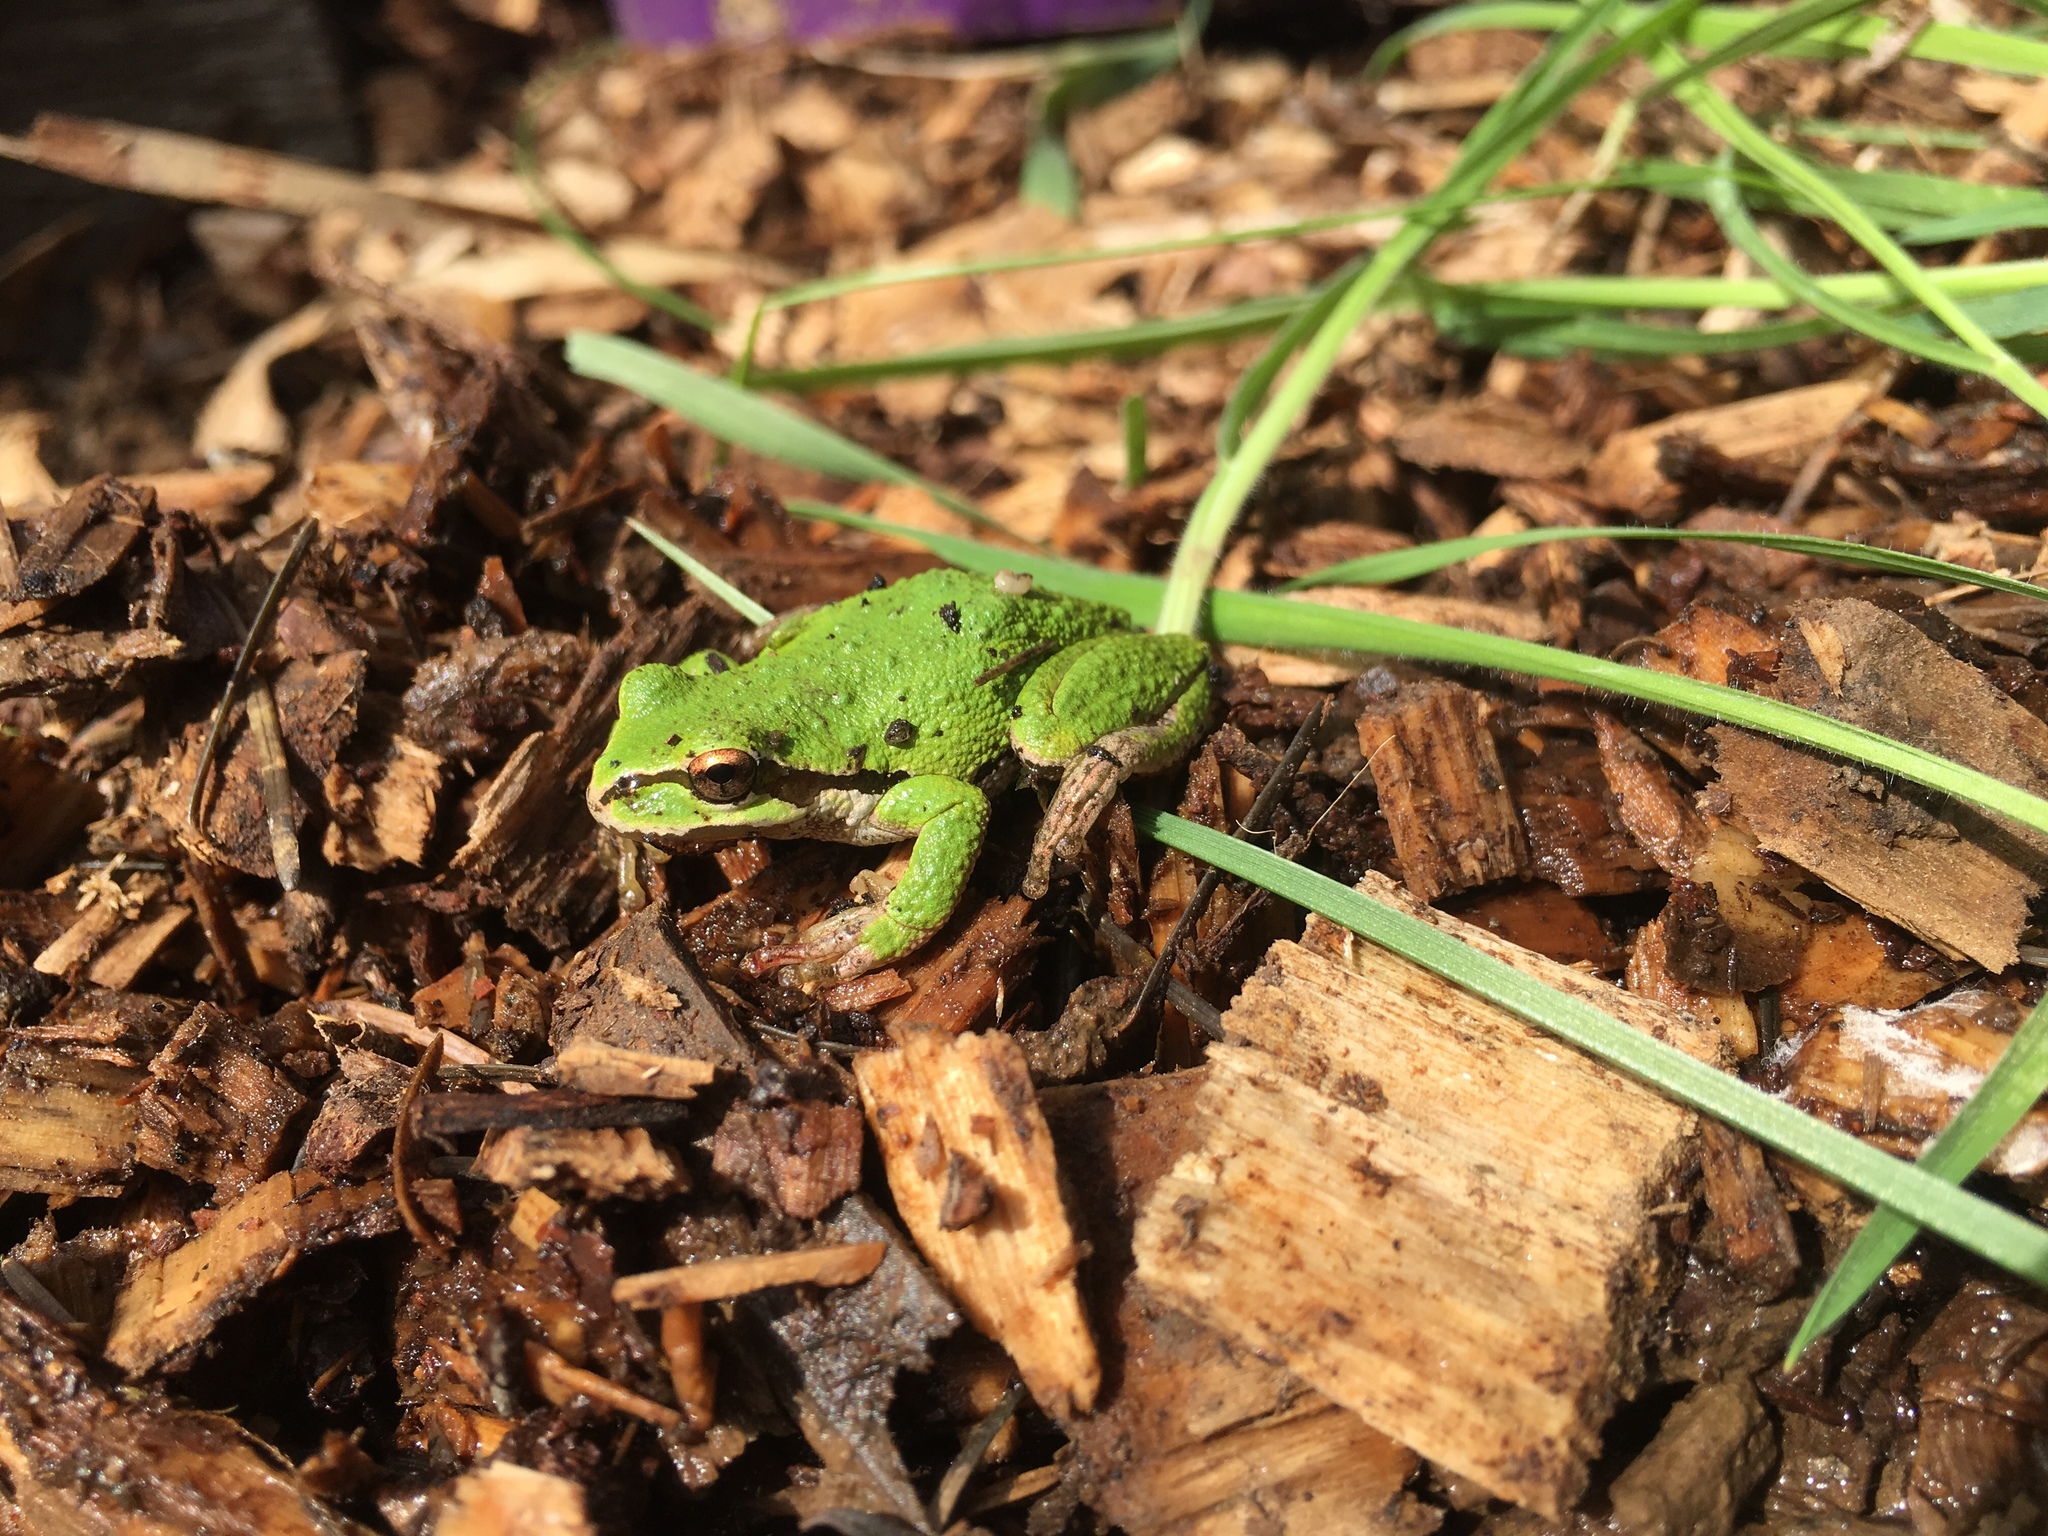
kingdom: Animalia
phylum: Chordata
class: Amphibia
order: Anura
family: Hylidae
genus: Pseudacris
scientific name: Pseudacris regilla
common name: Pacific chorus frog
